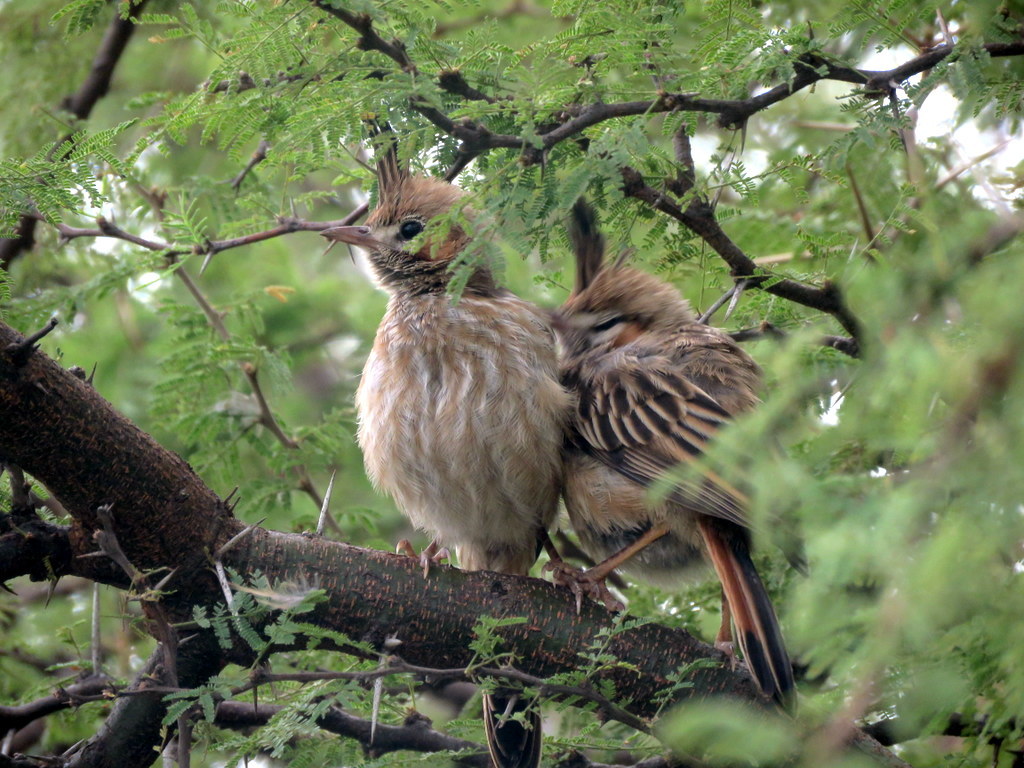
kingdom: Animalia
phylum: Chordata
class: Aves
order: Passeriformes
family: Furnariidae
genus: Coryphistera
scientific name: Coryphistera alaudina
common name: Lark-like brushrunner
